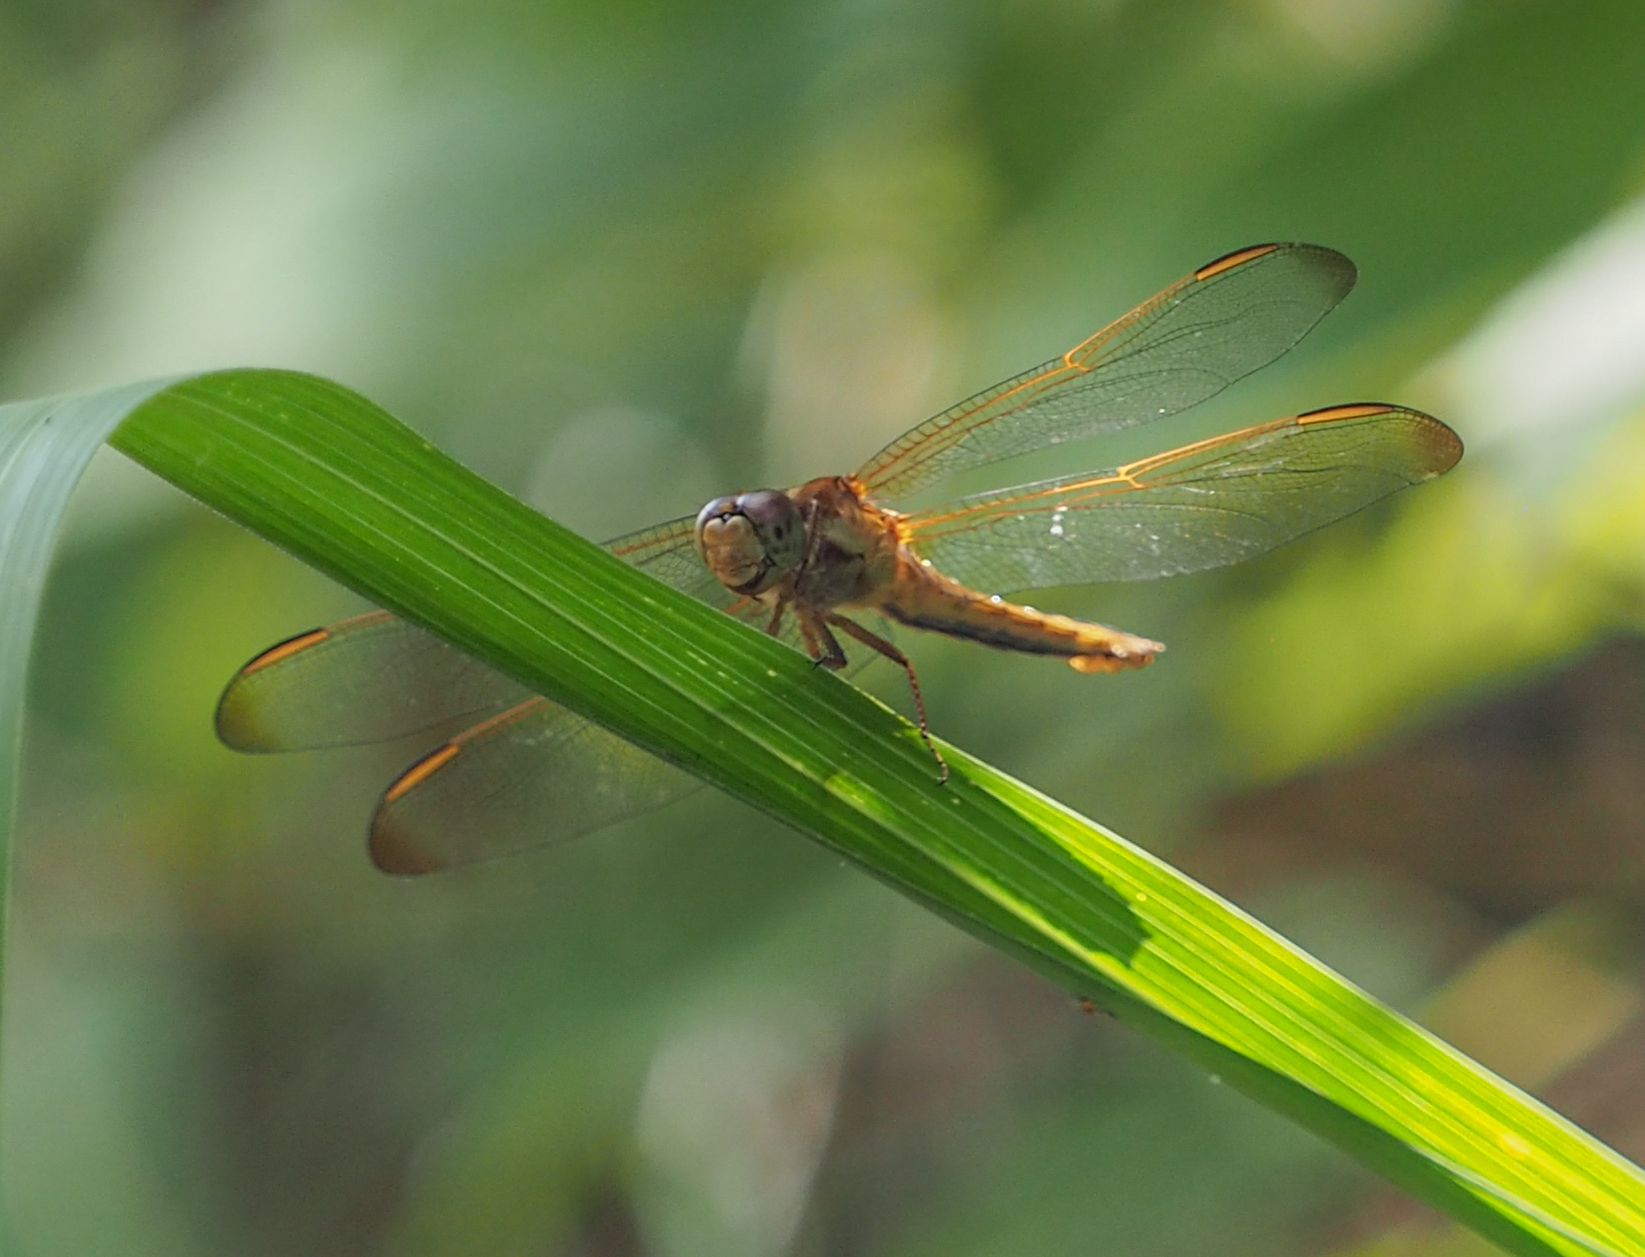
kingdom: Animalia
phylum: Arthropoda
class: Insecta
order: Odonata
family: Libellulidae
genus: Libellula
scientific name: Libellula needhami
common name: Needham's skimmer
